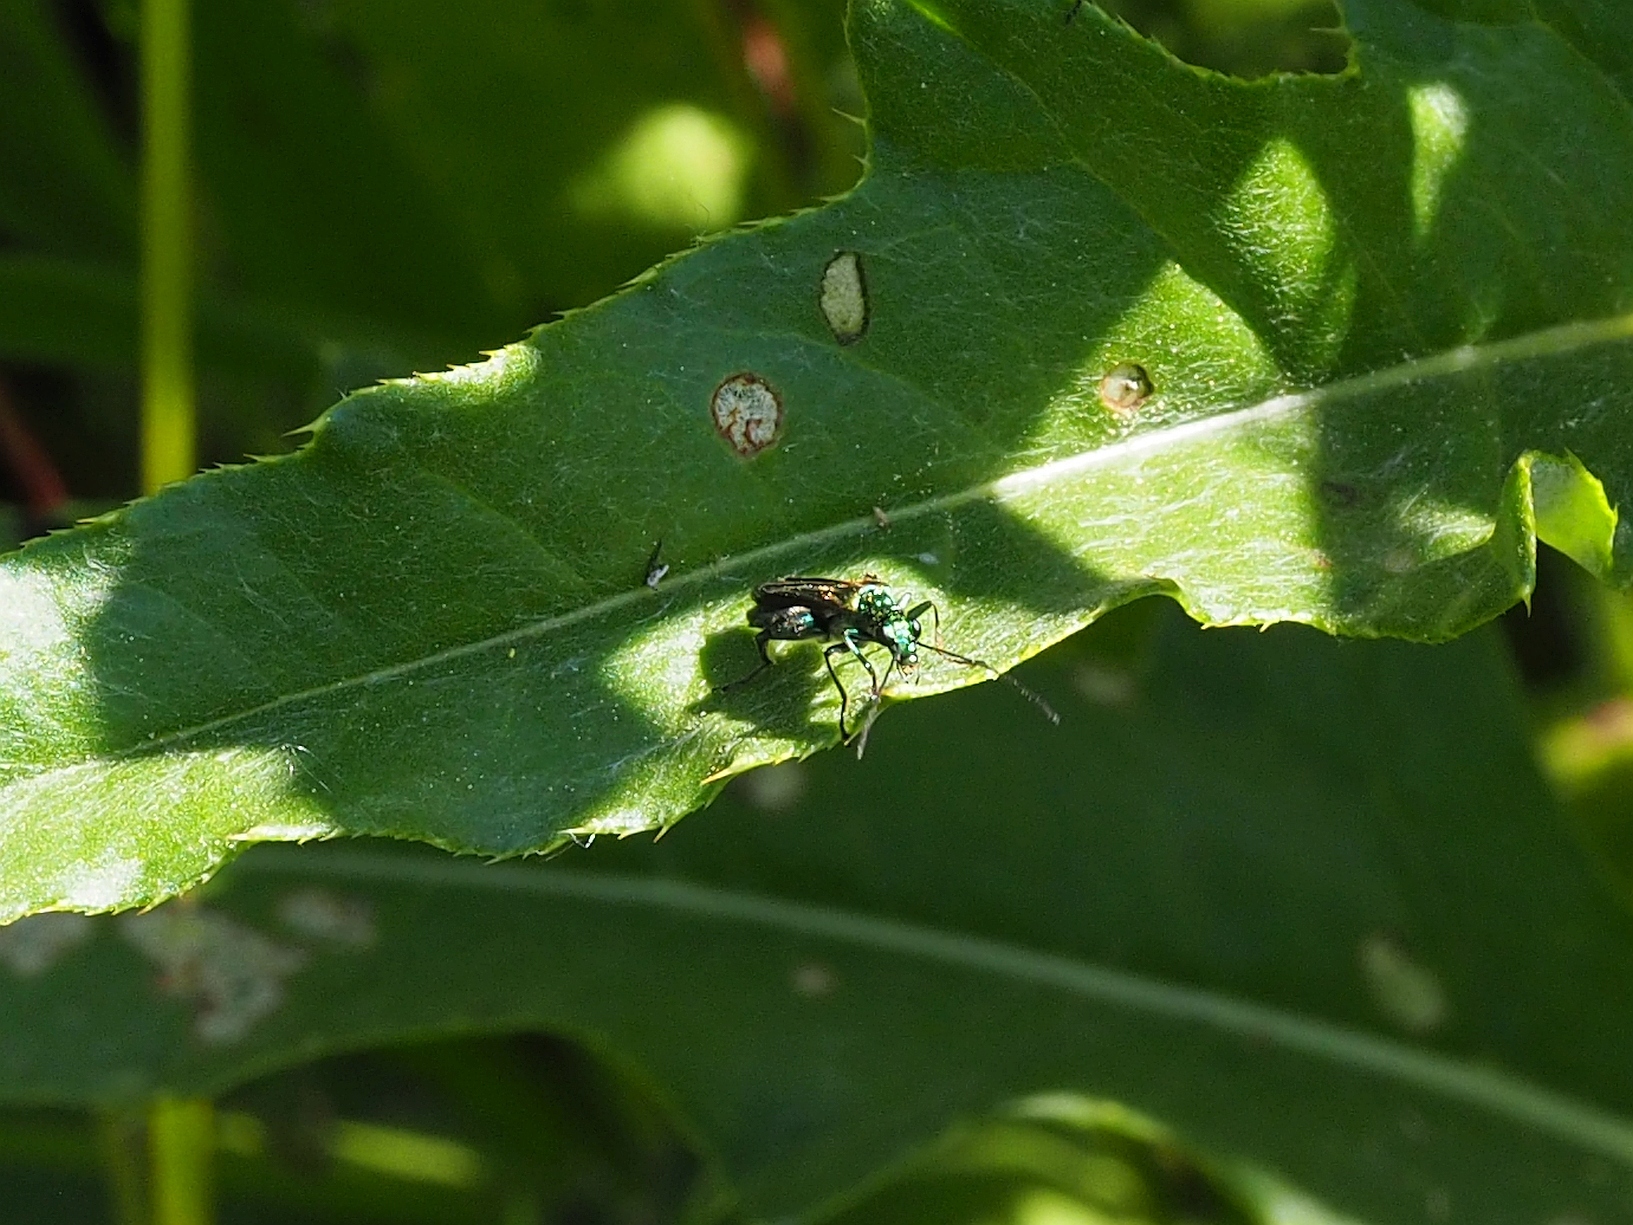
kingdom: Animalia
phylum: Arthropoda
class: Insecta
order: Coleoptera
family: Oedemeridae
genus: Oedemera
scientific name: Oedemera nobilis
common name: Swollen-thighed beetle
